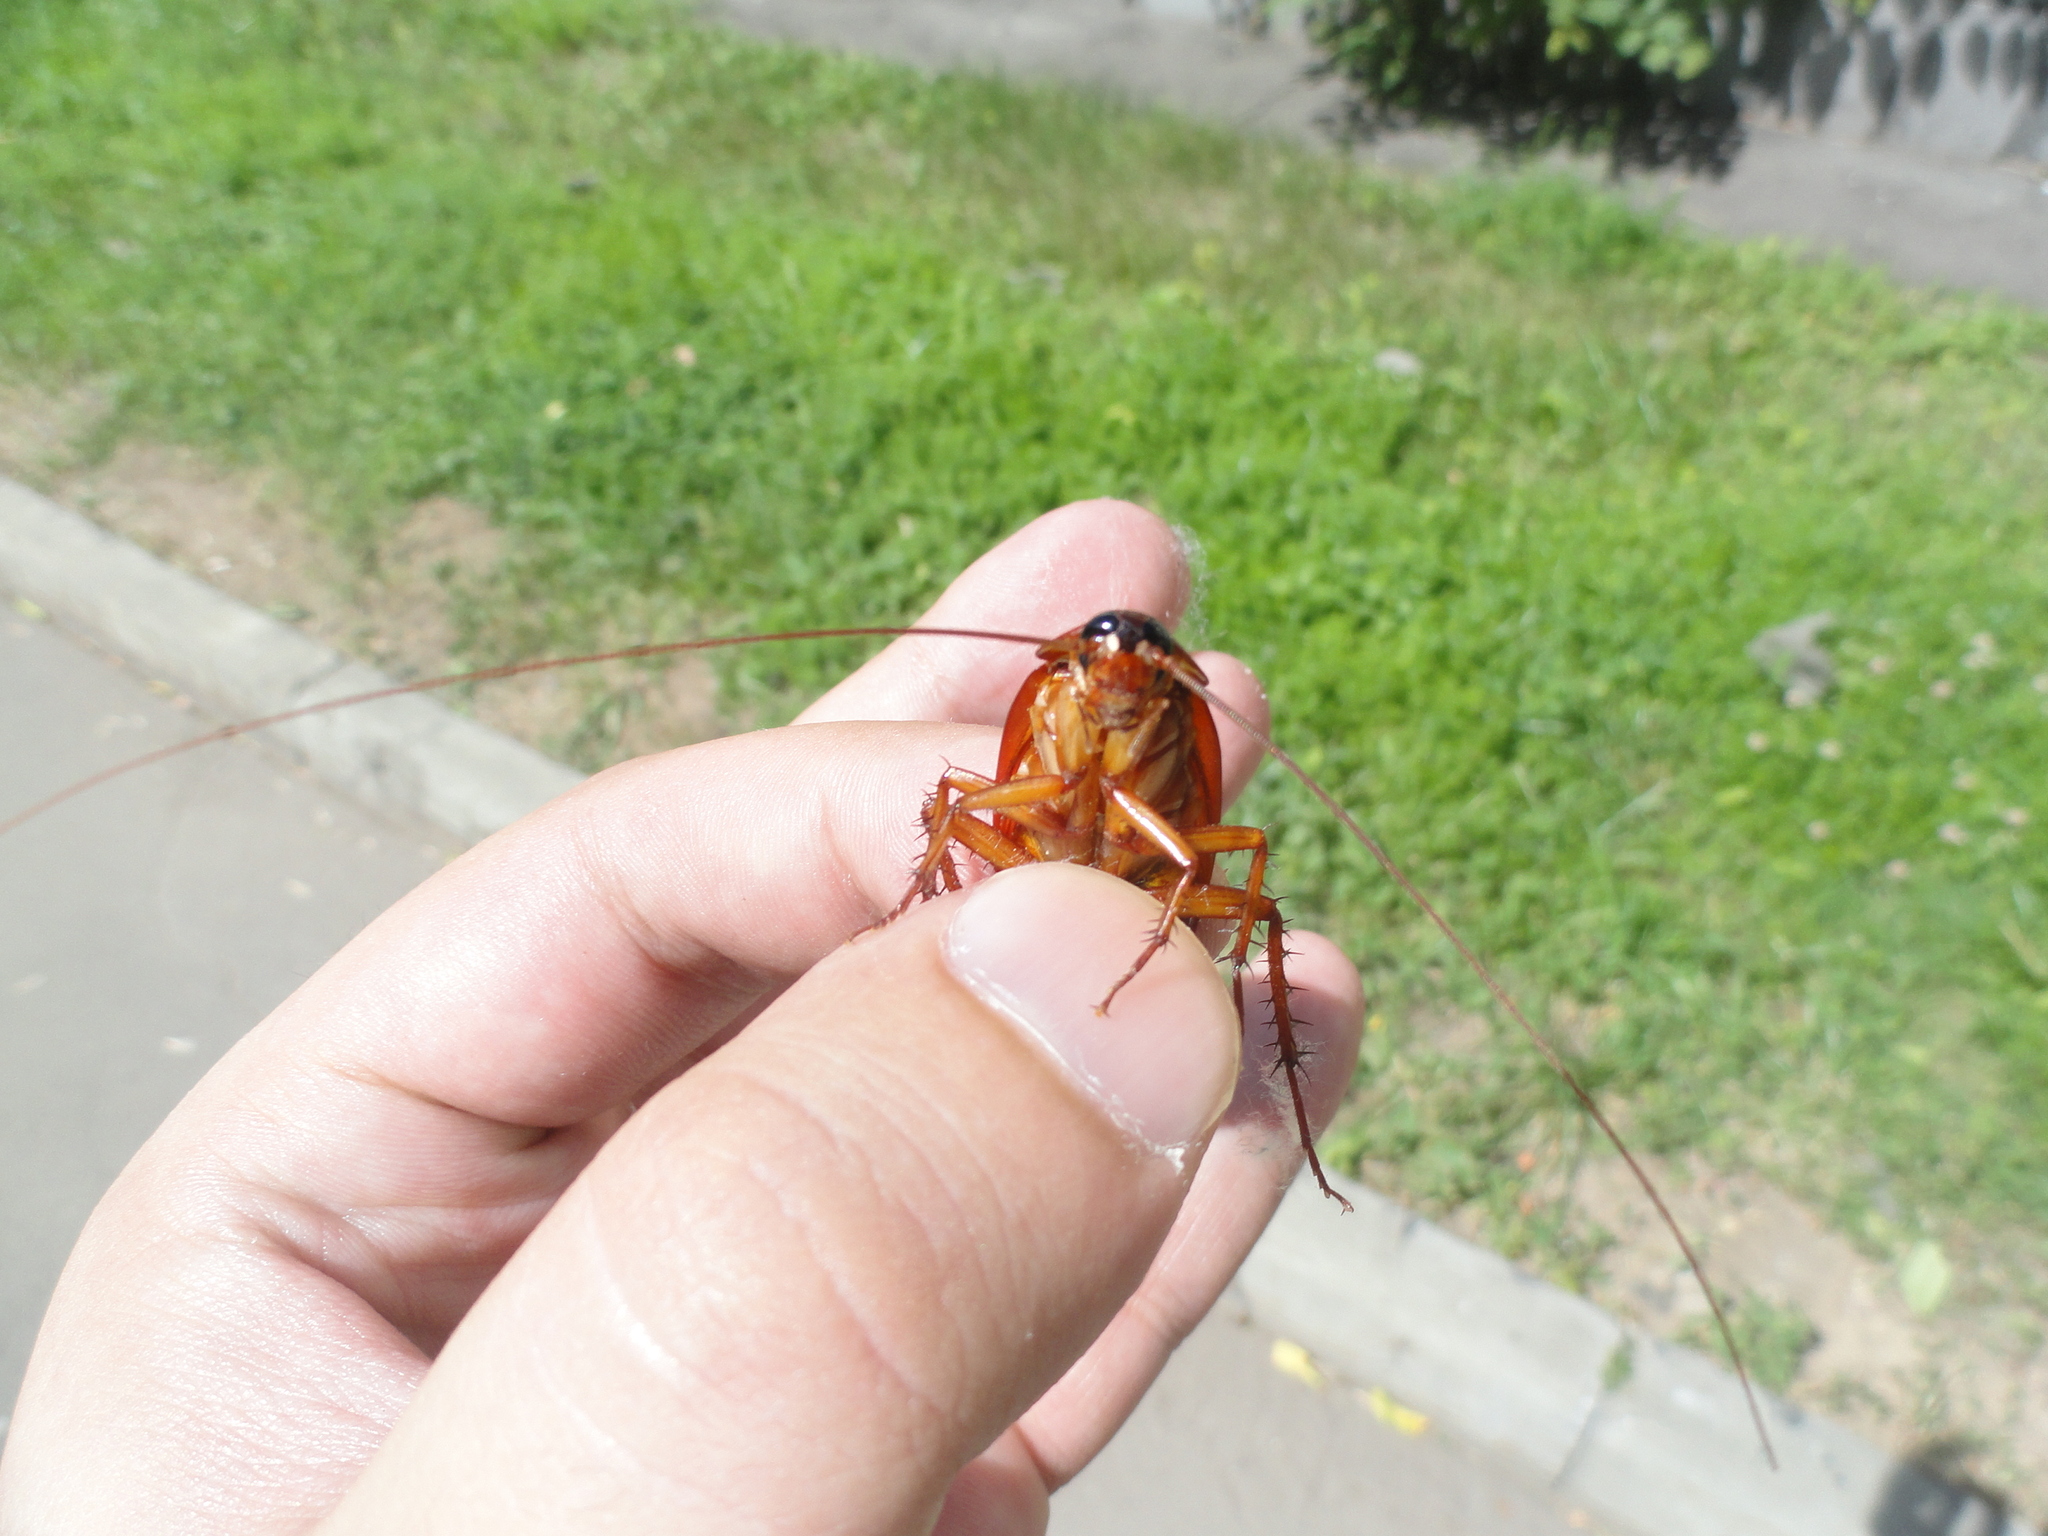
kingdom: Animalia
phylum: Arthropoda
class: Insecta
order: Blattodea
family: Blattidae
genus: Periplaneta
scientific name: Periplaneta americana
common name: American cockroach
